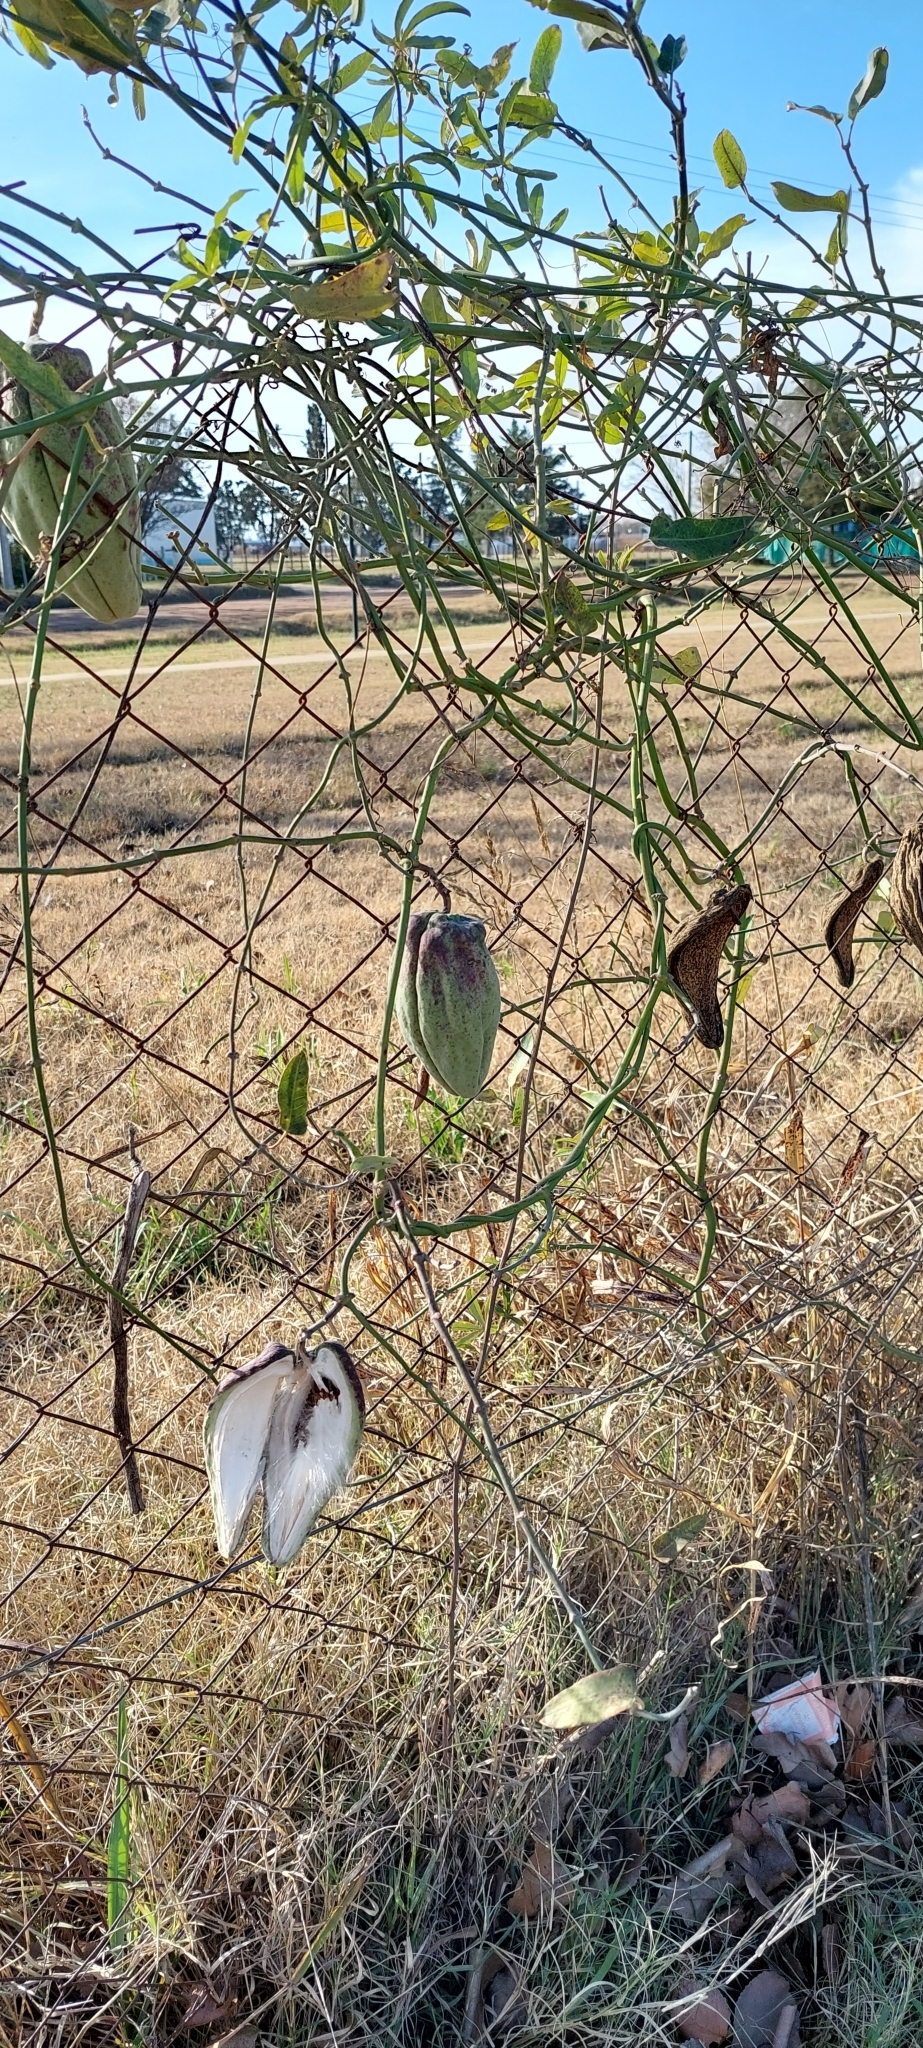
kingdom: Plantae
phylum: Tracheophyta
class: Magnoliopsida
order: Gentianales
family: Apocynaceae
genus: Araujia
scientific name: Araujia sericifera
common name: White bladderflower
